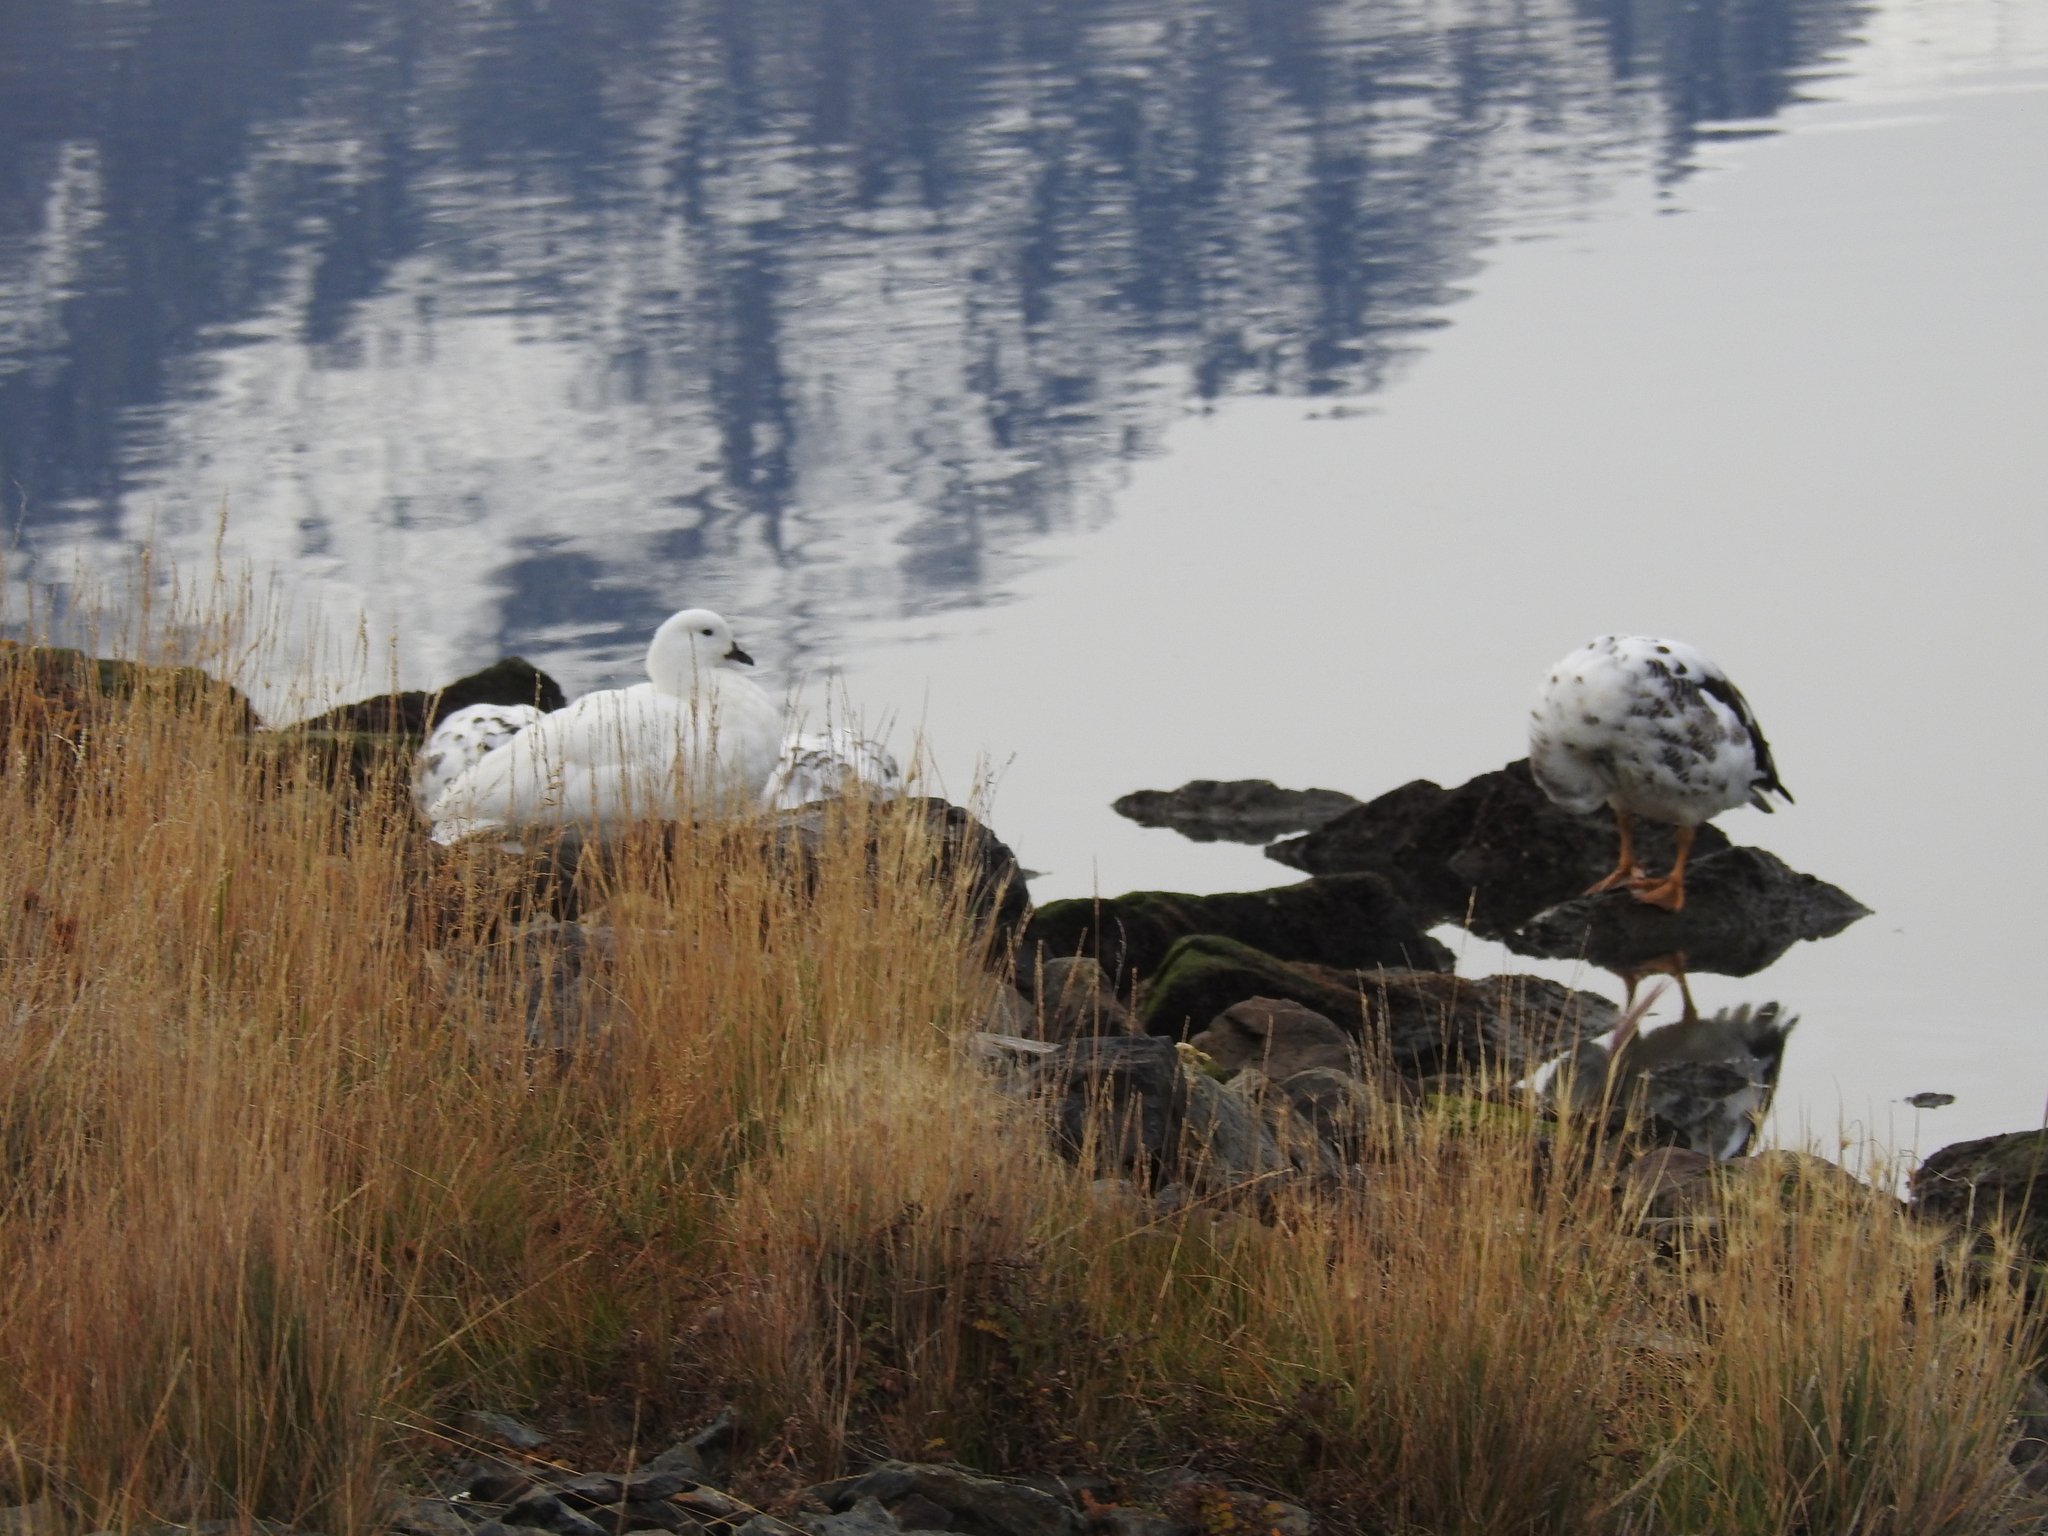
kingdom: Animalia
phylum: Chordata
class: Aves
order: Anseriformes
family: Anatidae
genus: Chloephaga
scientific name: Chloephaga hybrida
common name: Kelp goose
